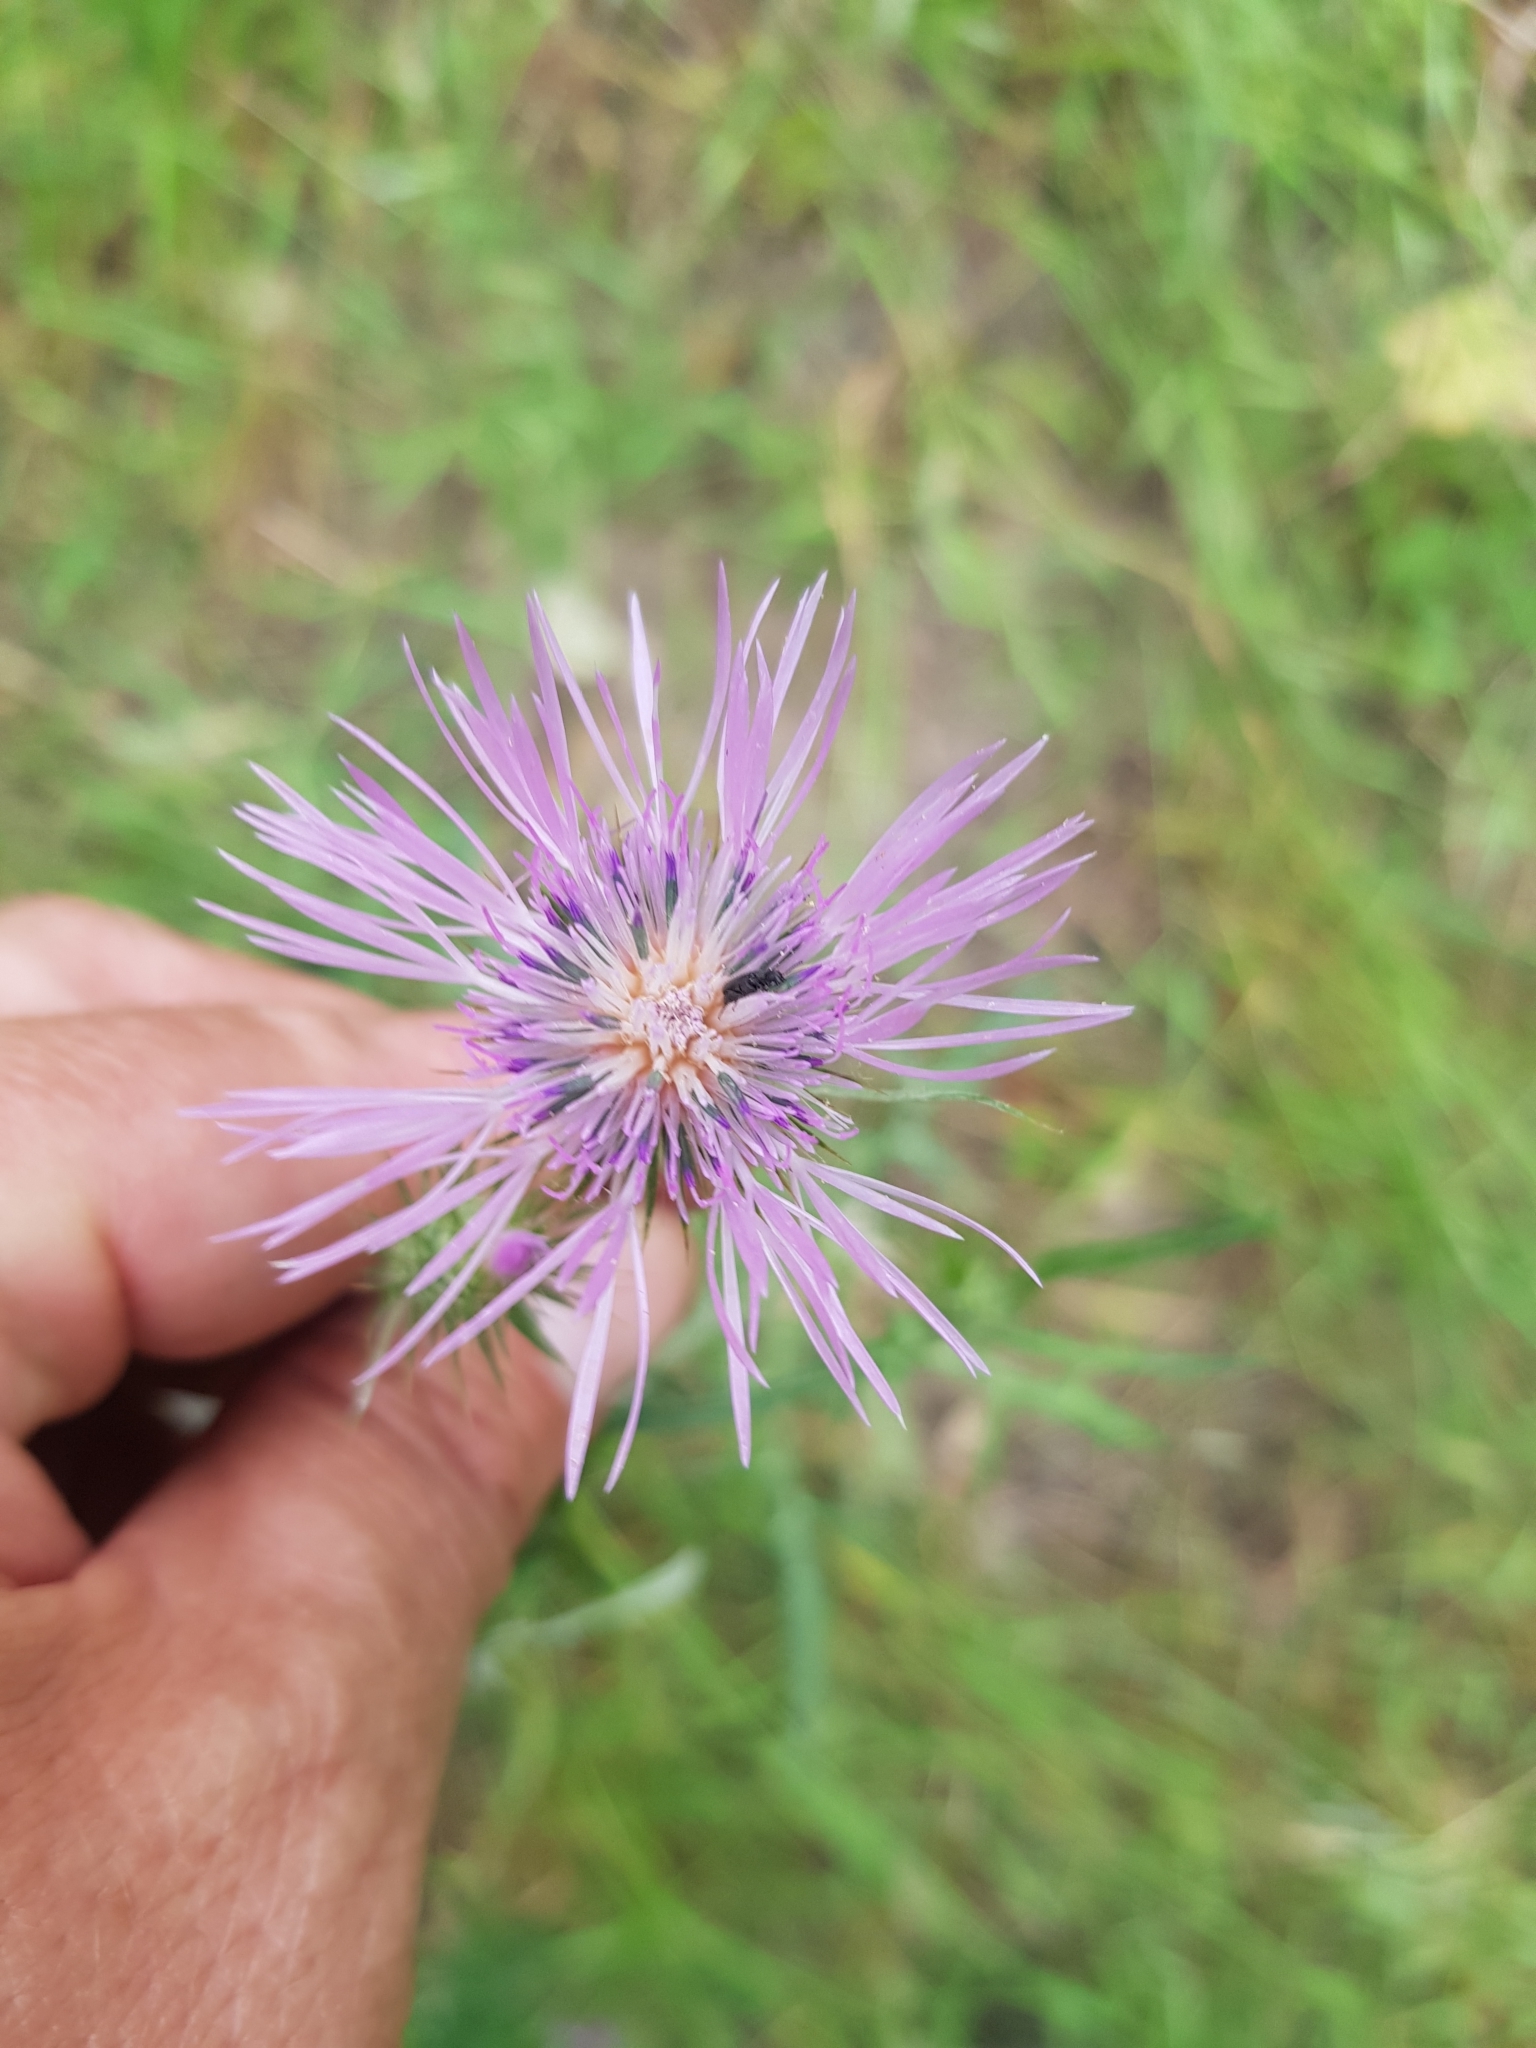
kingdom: Plantae
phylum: Tracheophyta
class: Magnoliopsida
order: Asterales
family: Asteraceae
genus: Galactites
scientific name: Galactites tomentosa
